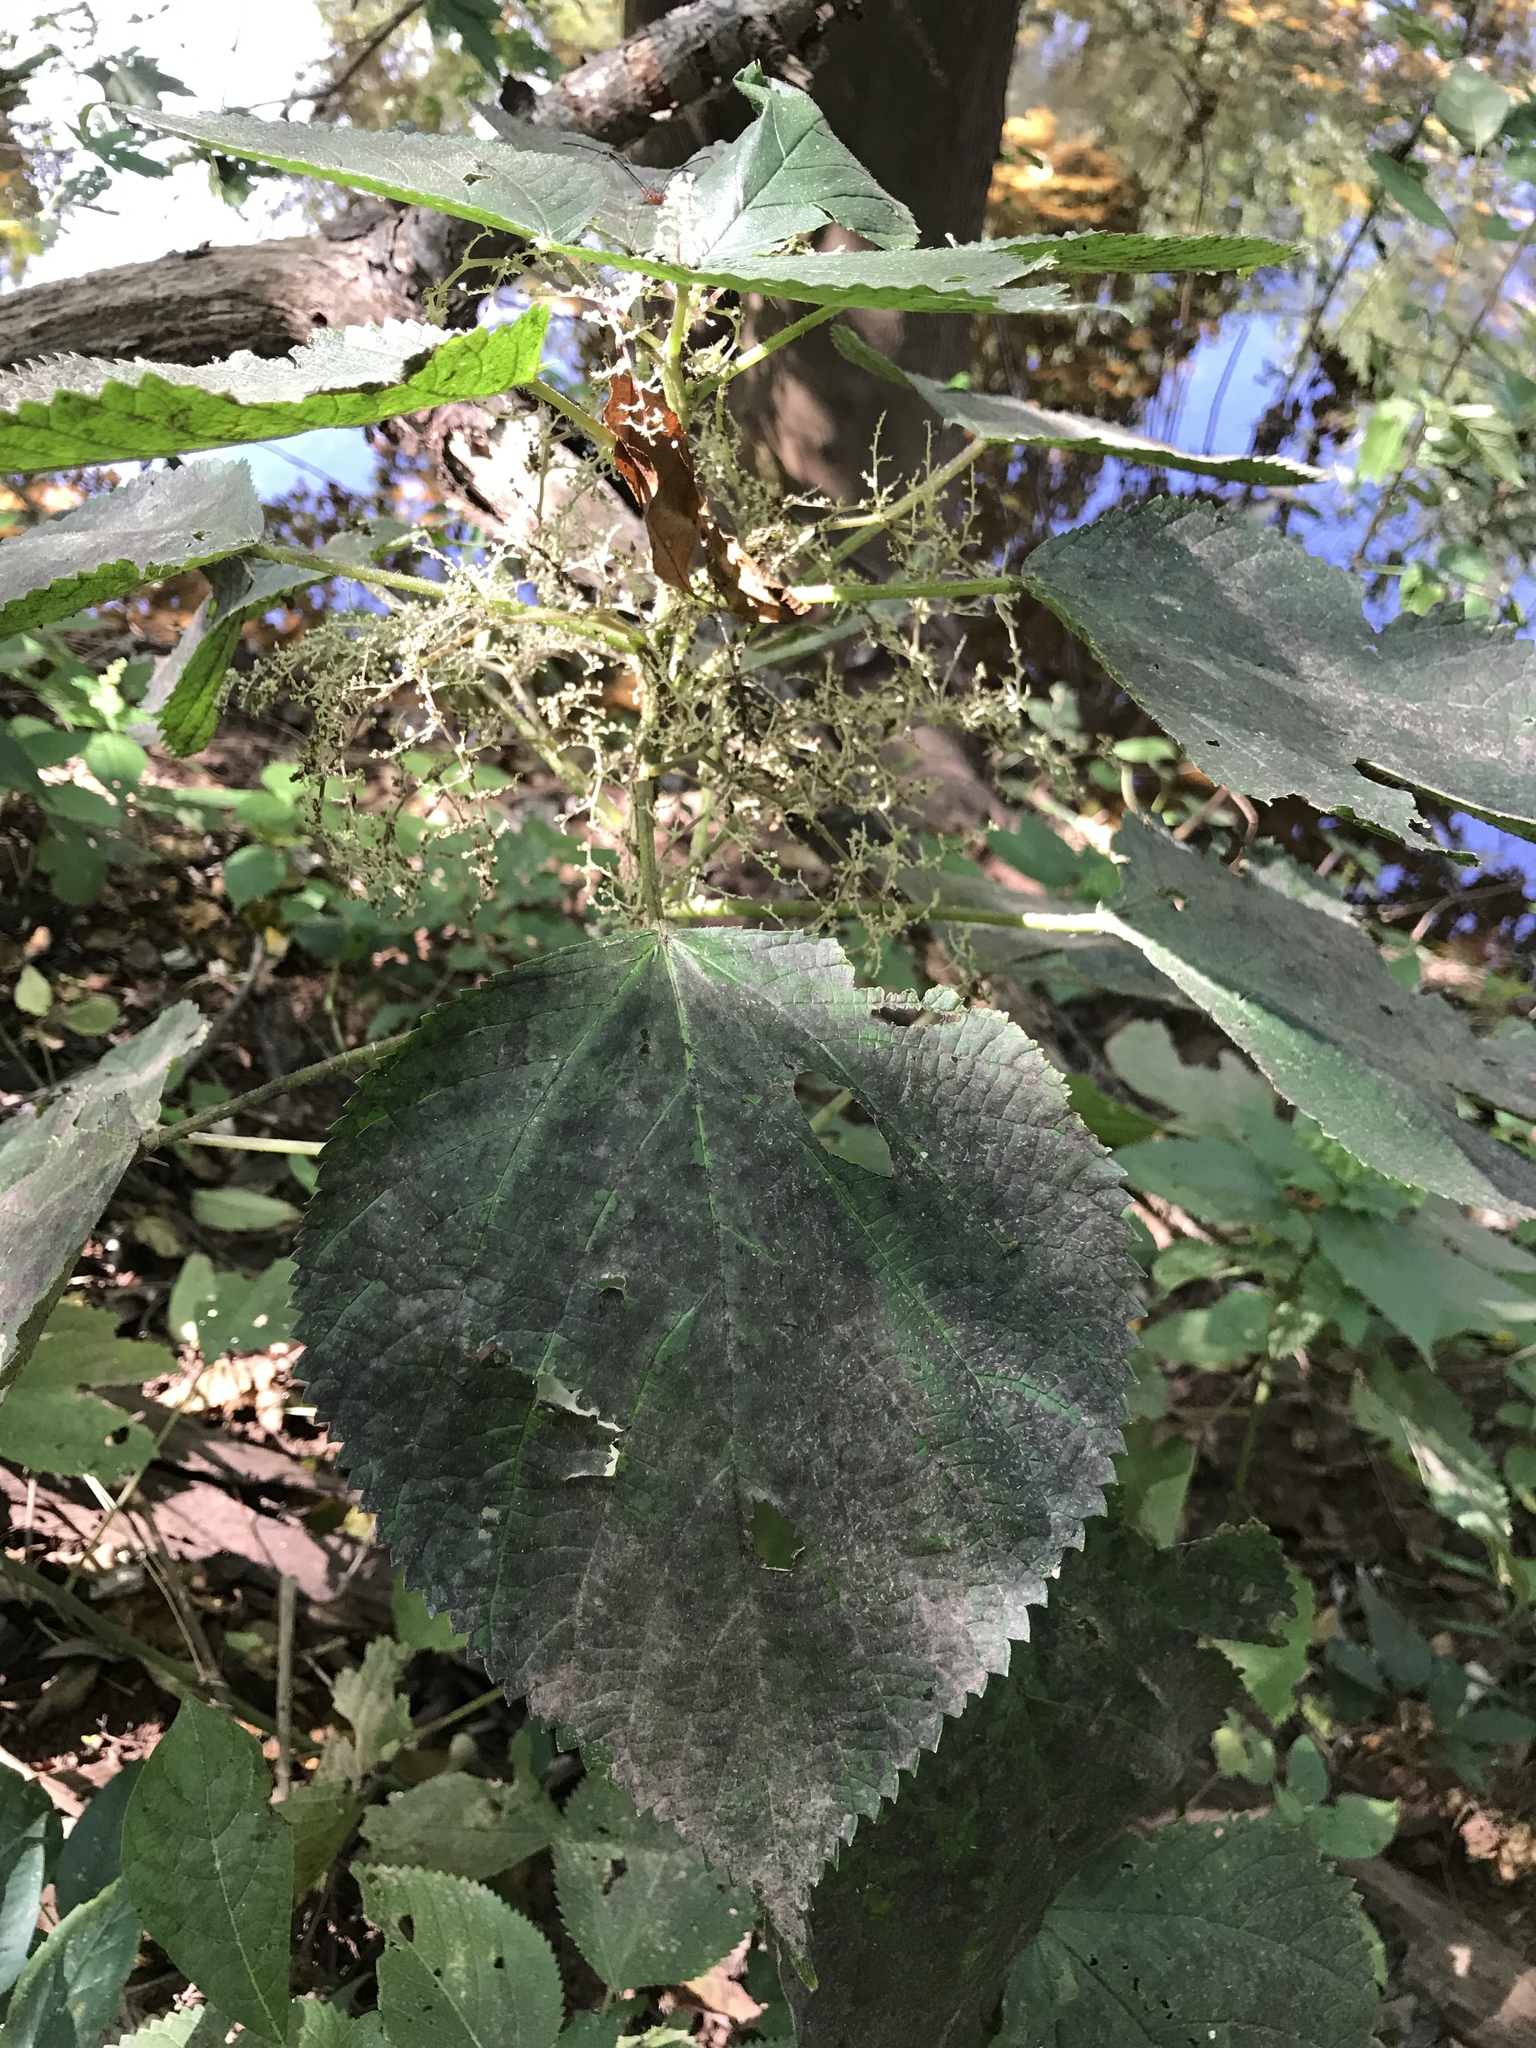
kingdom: Plantae
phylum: Tracheophyta
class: Magnoliopsida
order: Rosales
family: Urticaceae
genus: Laportea
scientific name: Laportea canadensis
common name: Canada nettle
